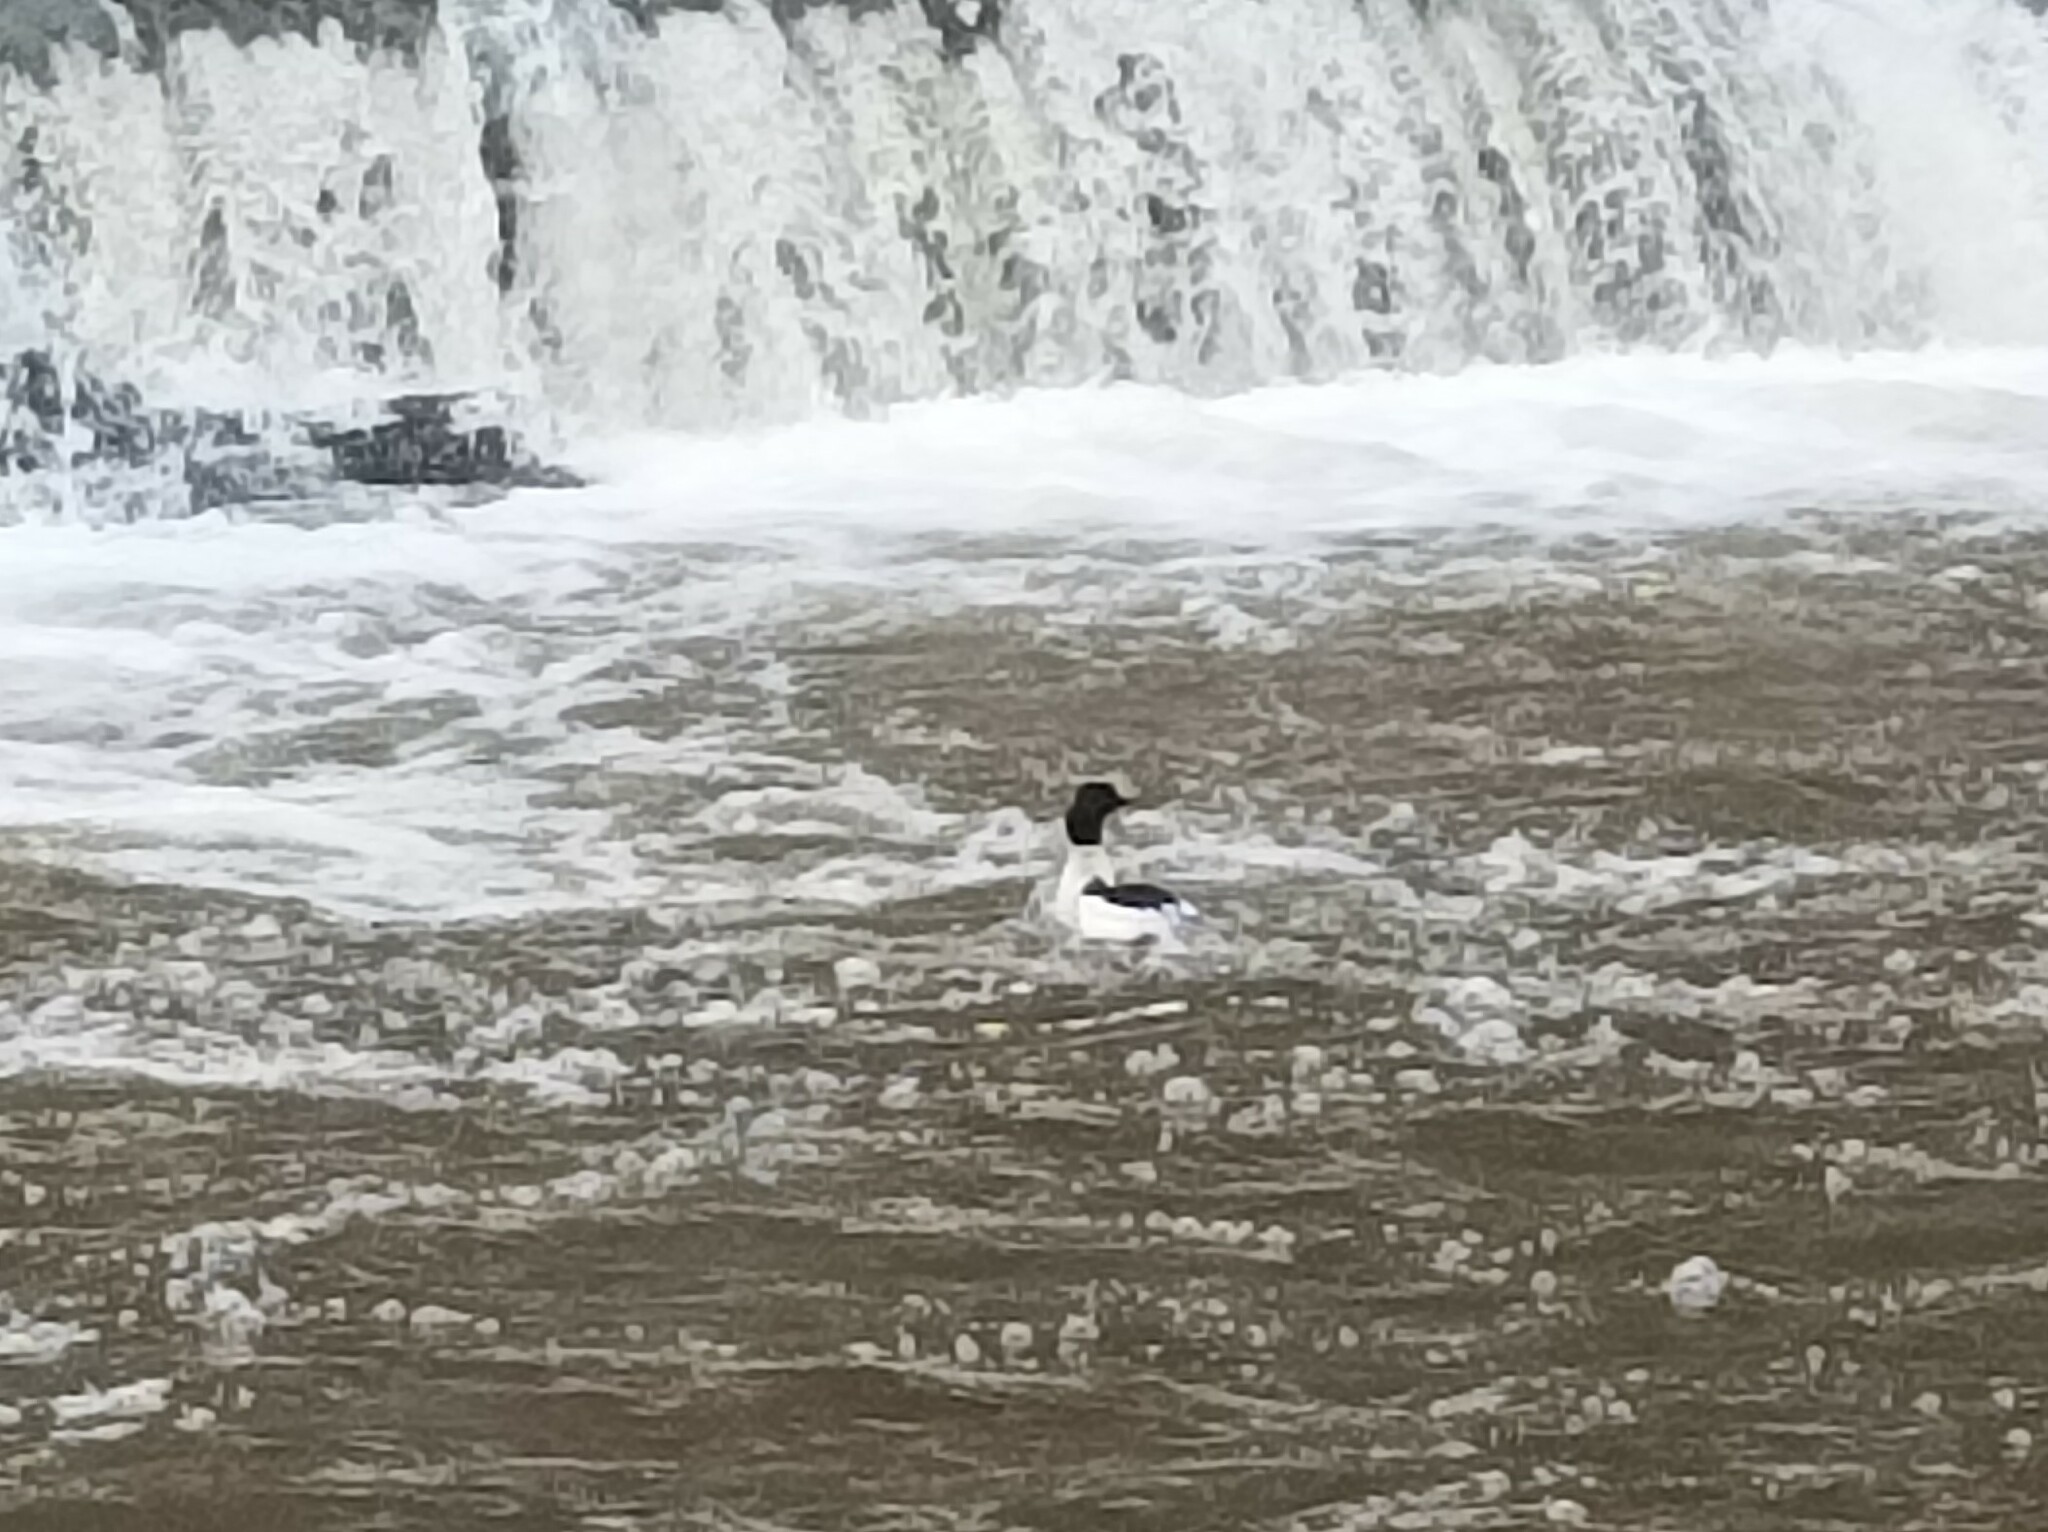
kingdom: Animalia
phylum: Chordata
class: Aves
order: Anseriformes
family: Anatidae
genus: Mergus
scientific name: Mergus merganser
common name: Common merganser
